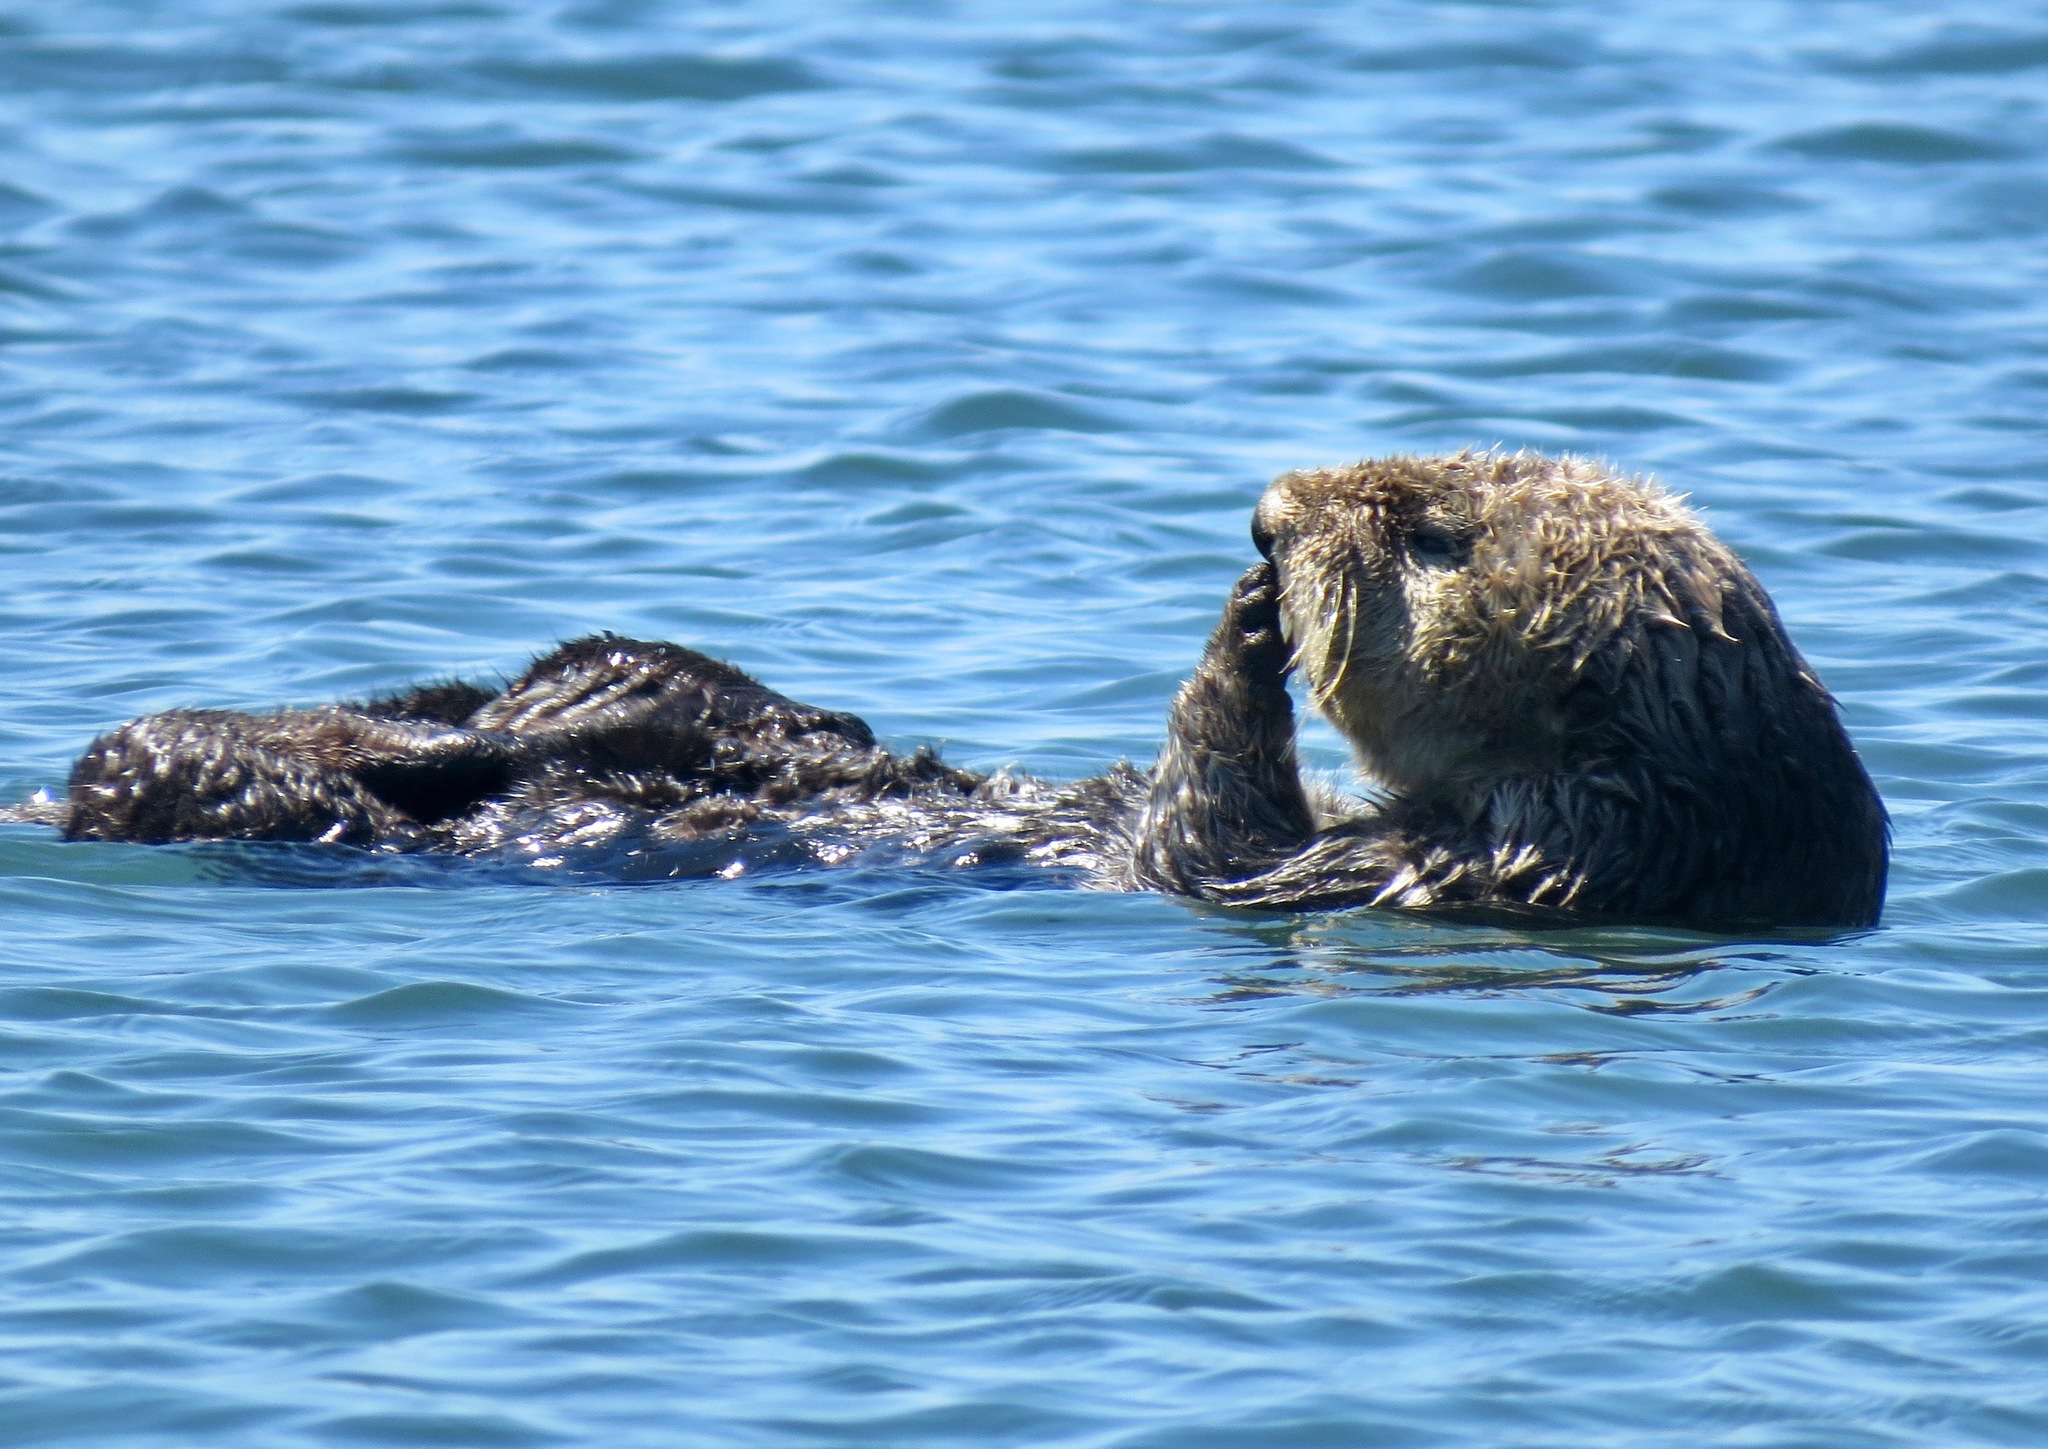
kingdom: Animalia
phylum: Chordata
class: Mammalia
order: Carnivora
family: Mustelidae
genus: Enhydra
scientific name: Enhydra lutris
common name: Sea otter
